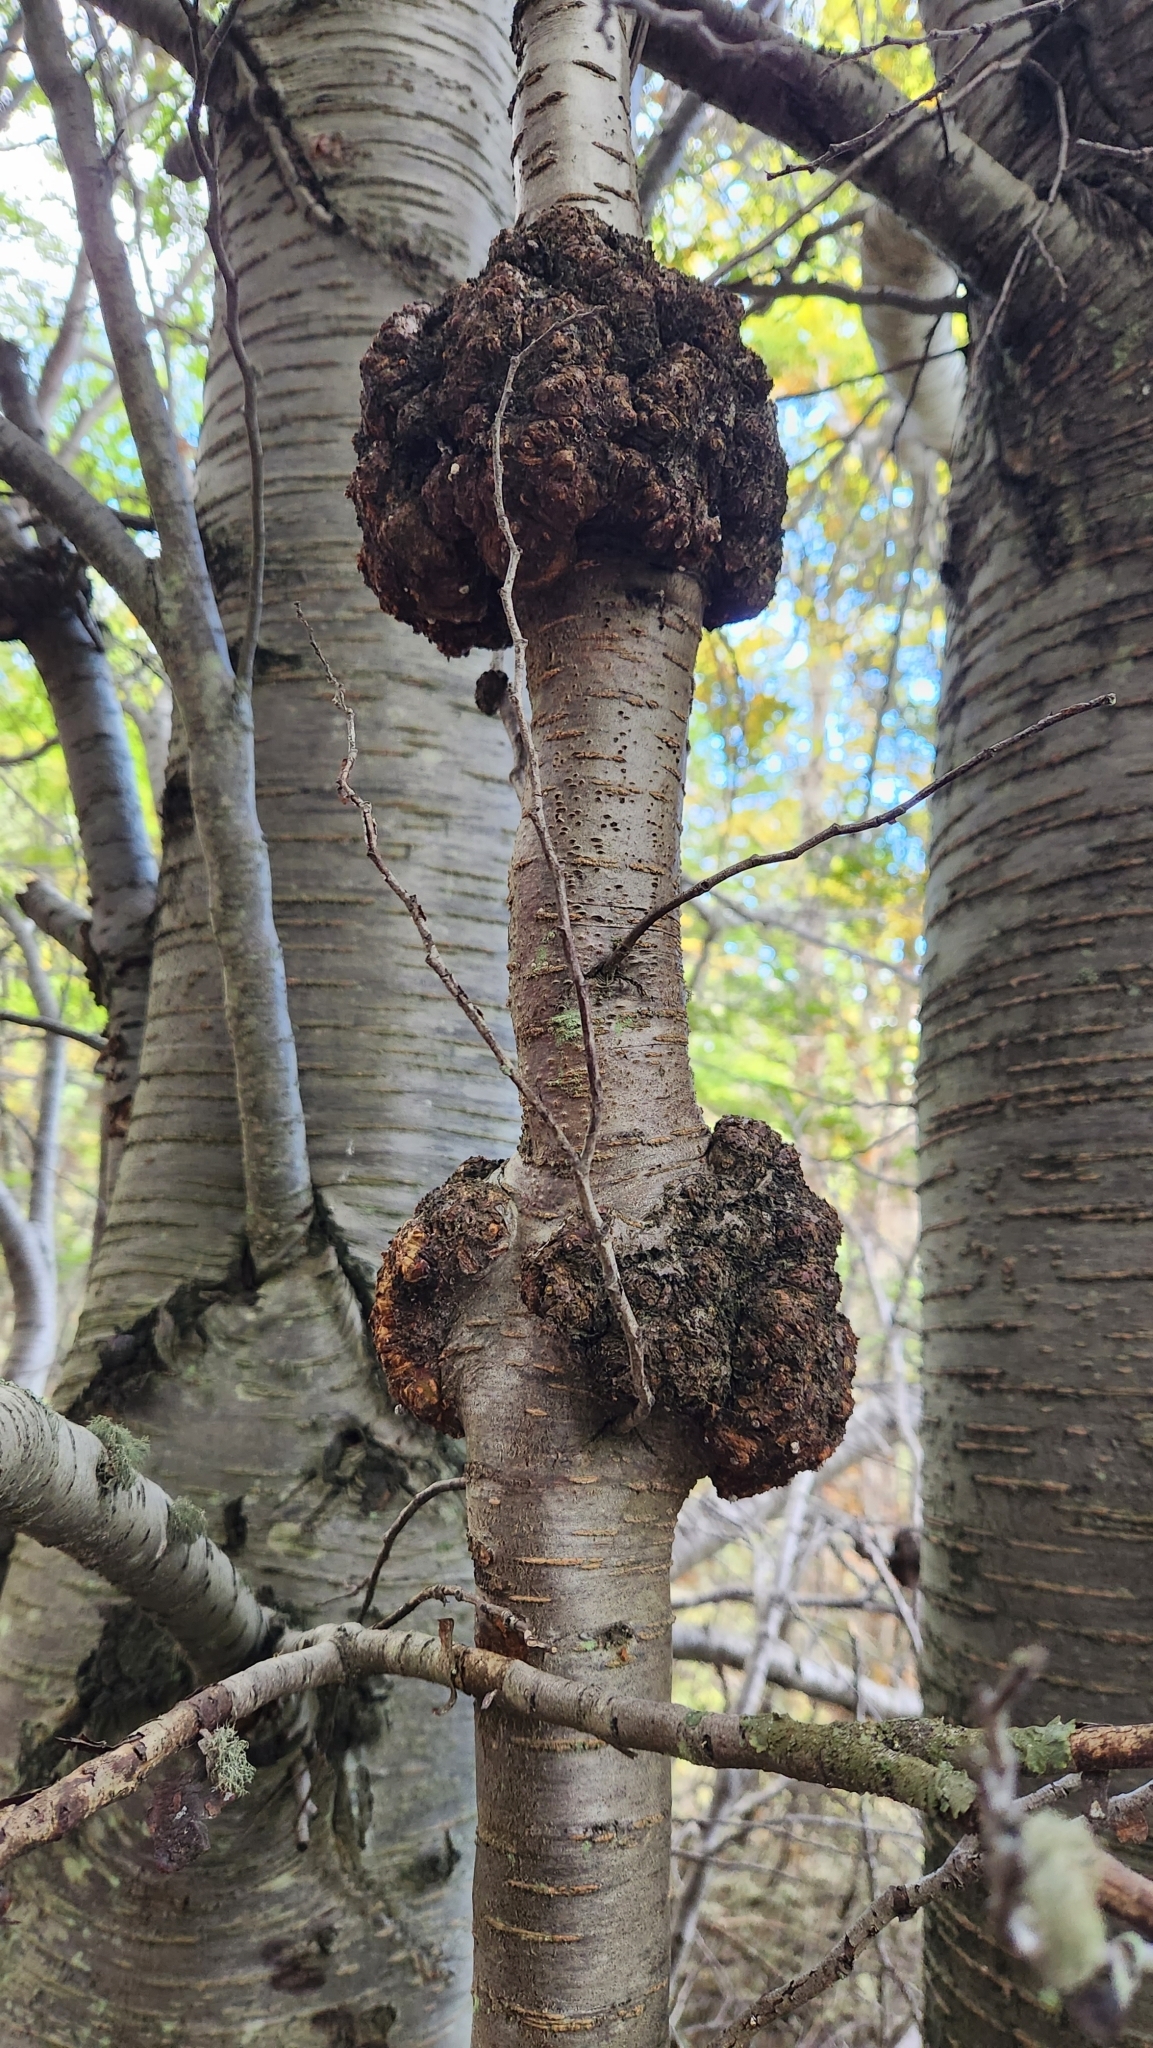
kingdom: Fungi
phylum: Ascomycota
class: Leotiomycetes
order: Cyttariales
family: Cyttariaceae
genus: Cyttaria
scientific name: Cyttaria darwinii
